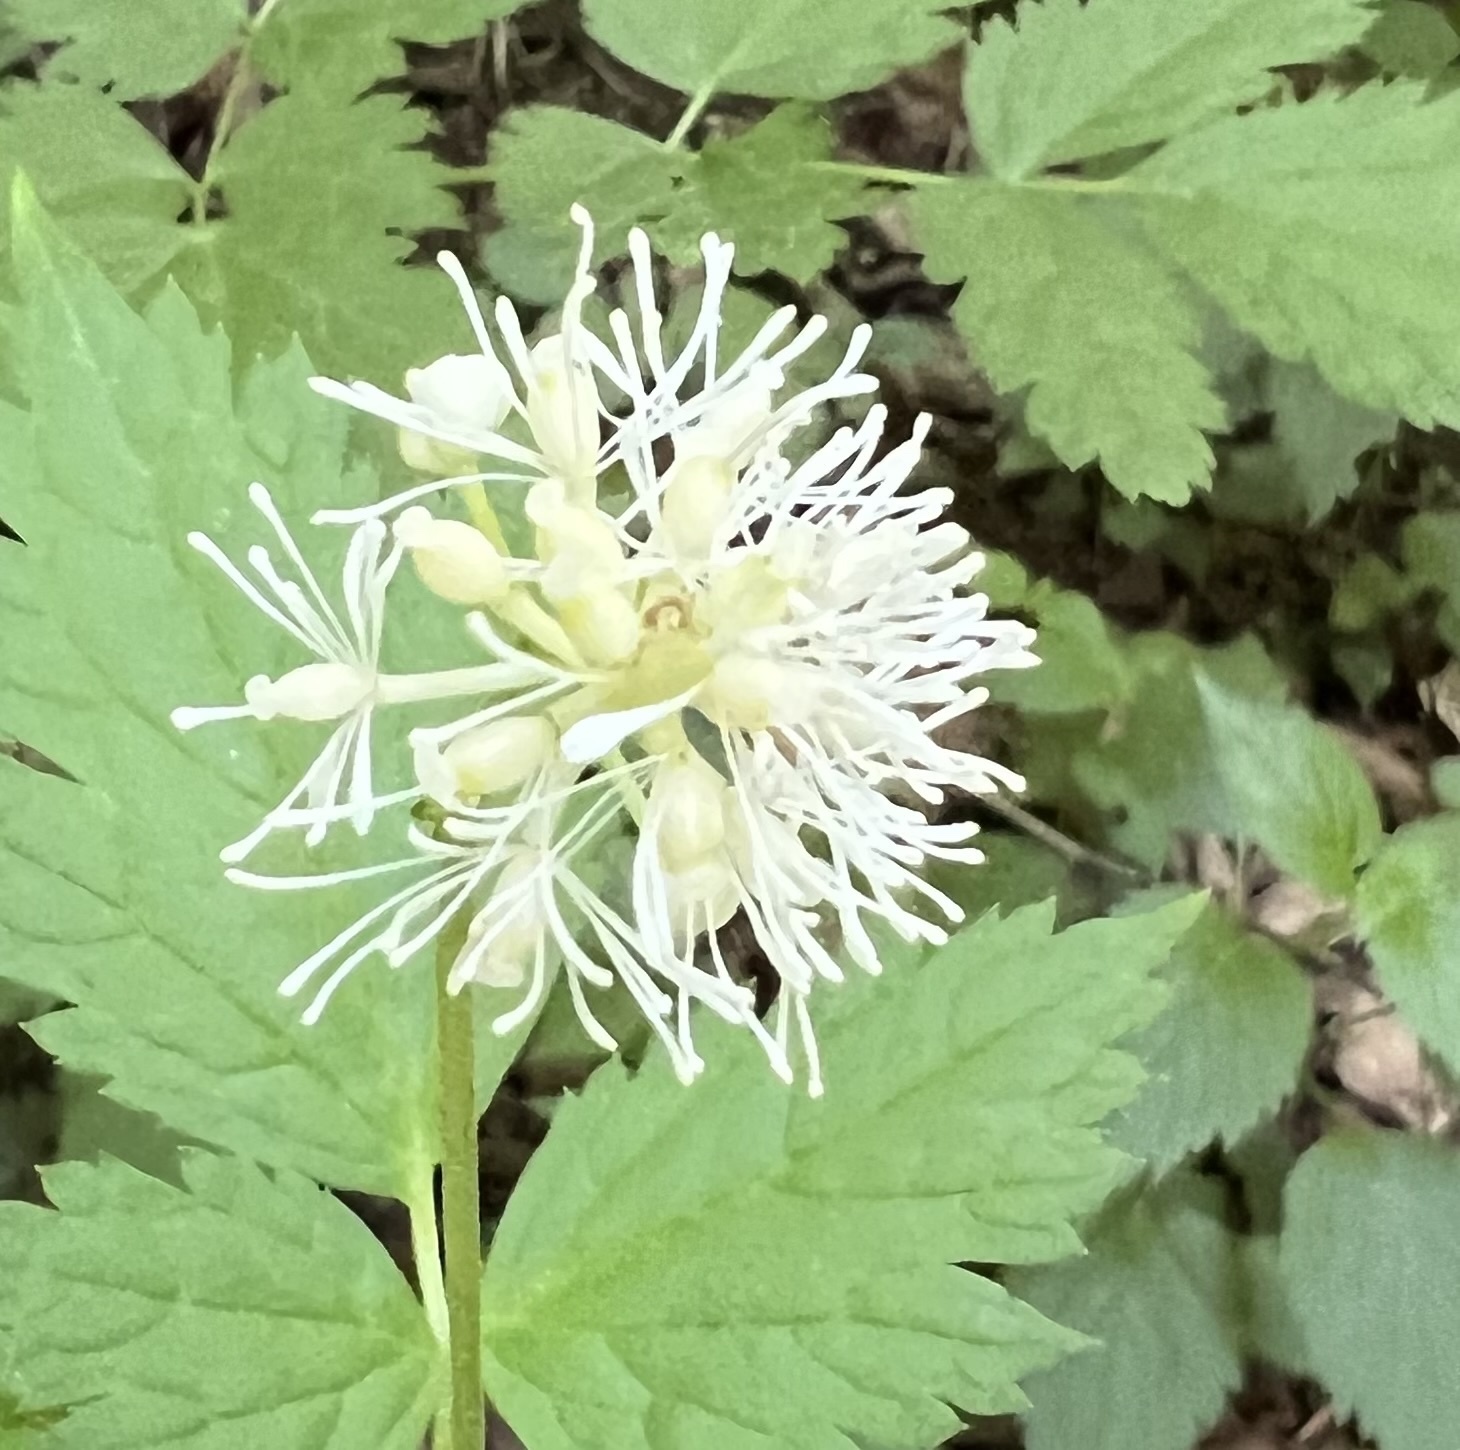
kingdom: Plantae
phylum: Tracheophyta
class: Magnoliopsida
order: Ranunculales
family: Ranunculaceae
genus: Actaea
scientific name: Actaea spicata
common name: Baneberry
